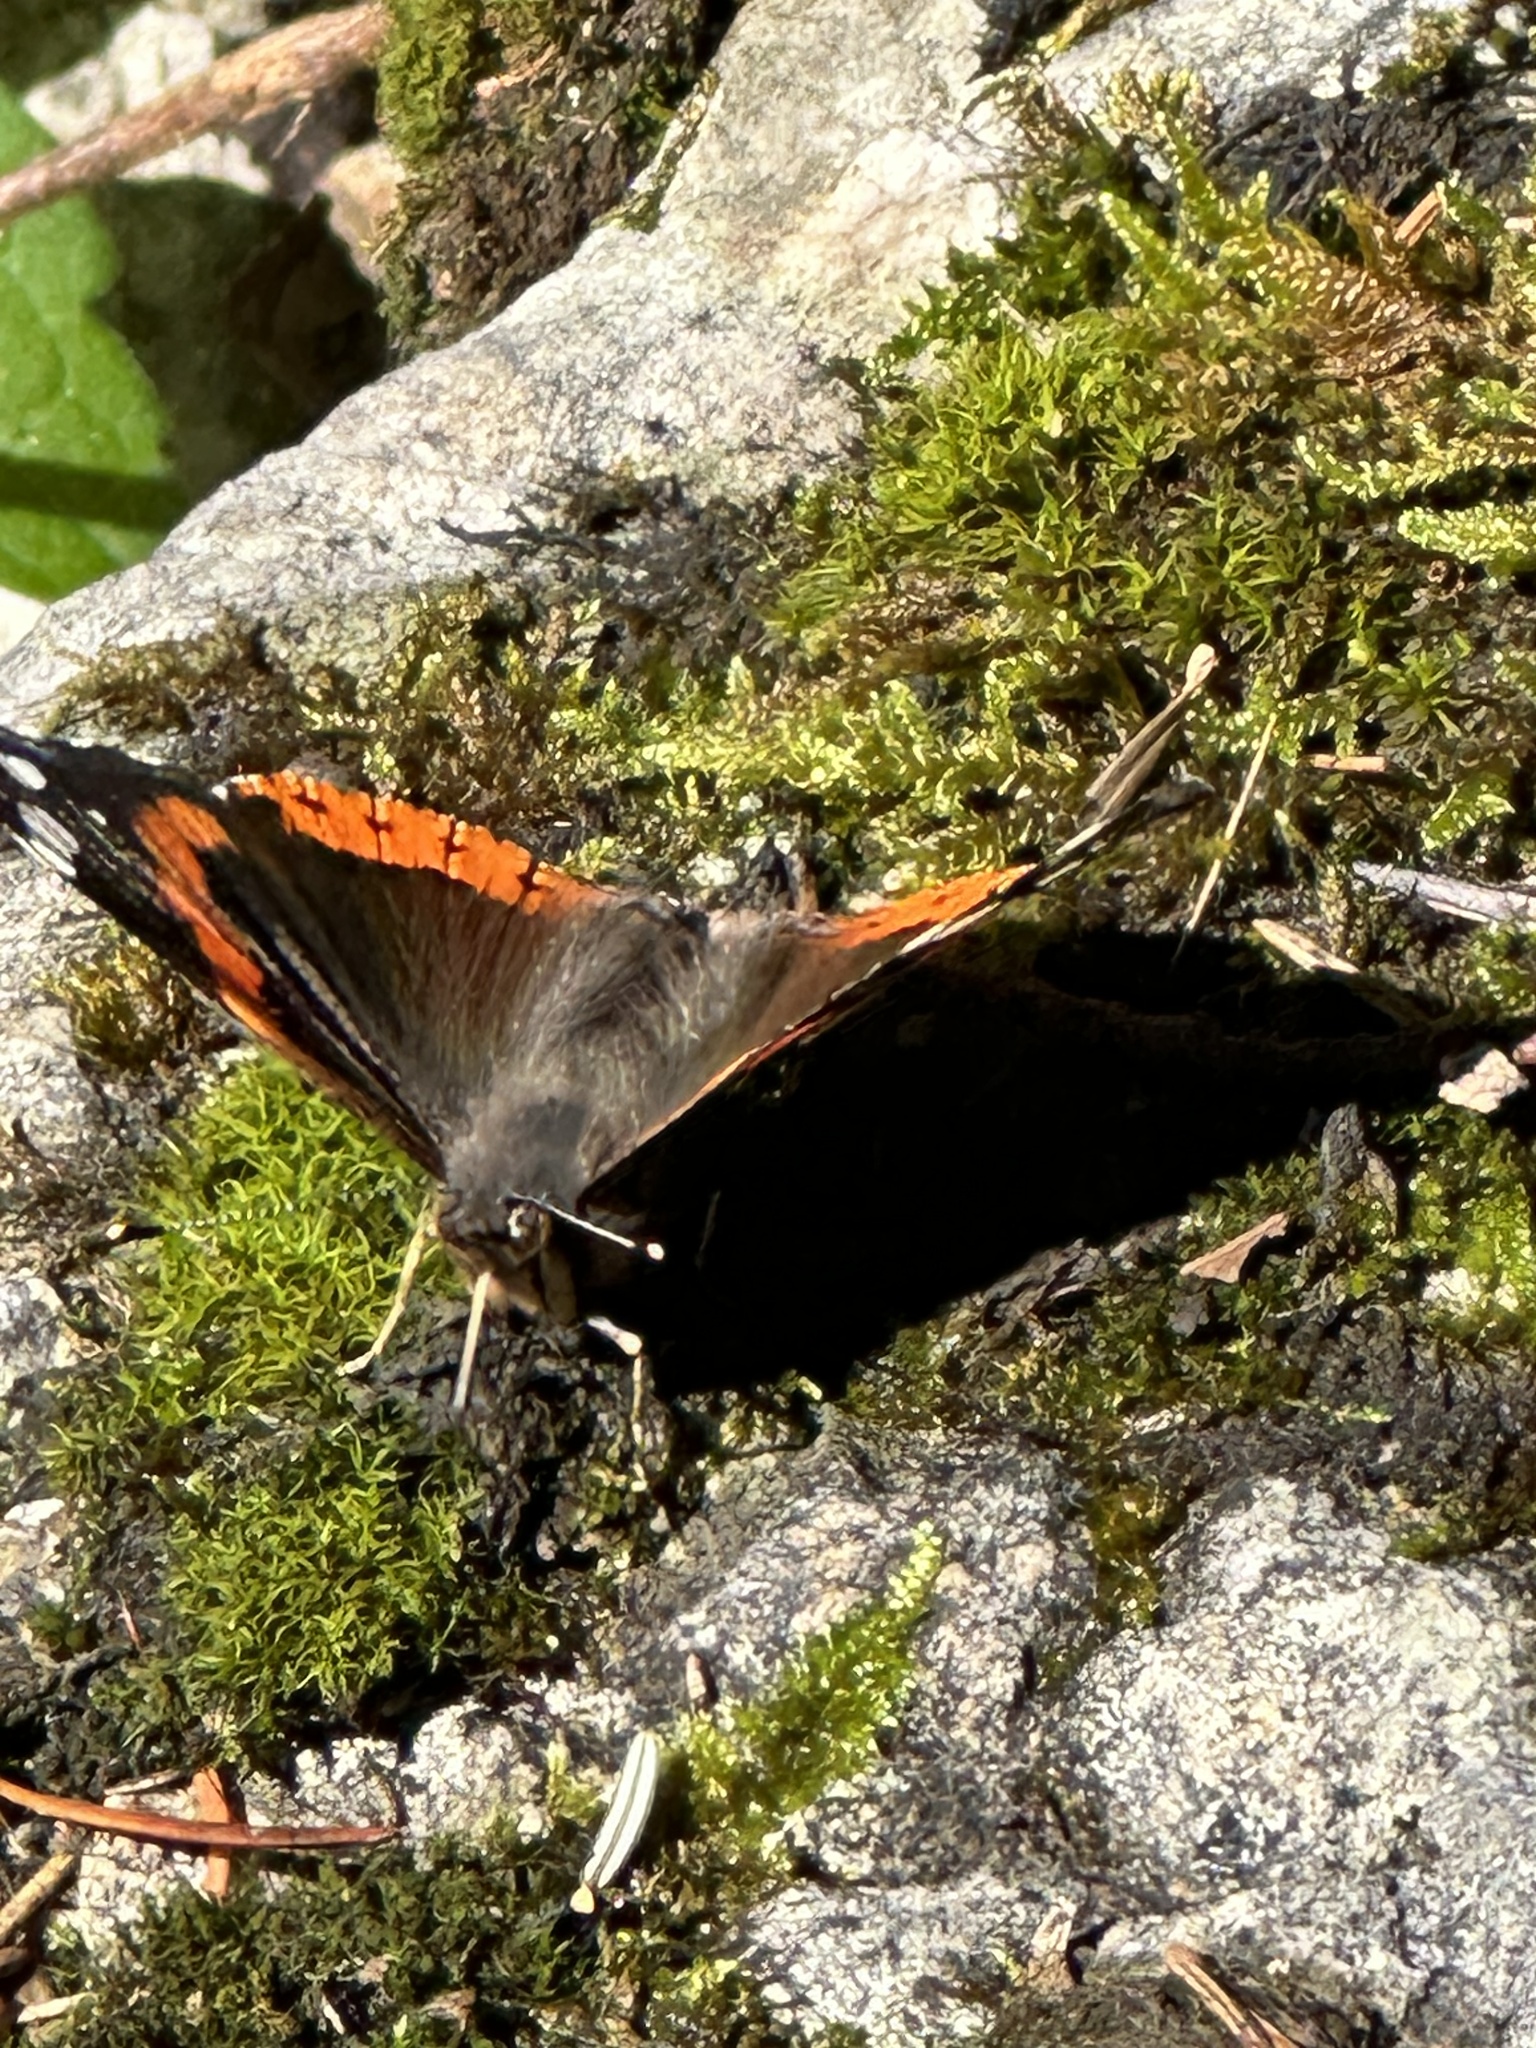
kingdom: Animalia
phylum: Arthropoda
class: Insecta
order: Lepidoptera
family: Nymphalidae
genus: Vanessa
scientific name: Vanessa atalanta
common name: Red admiral
